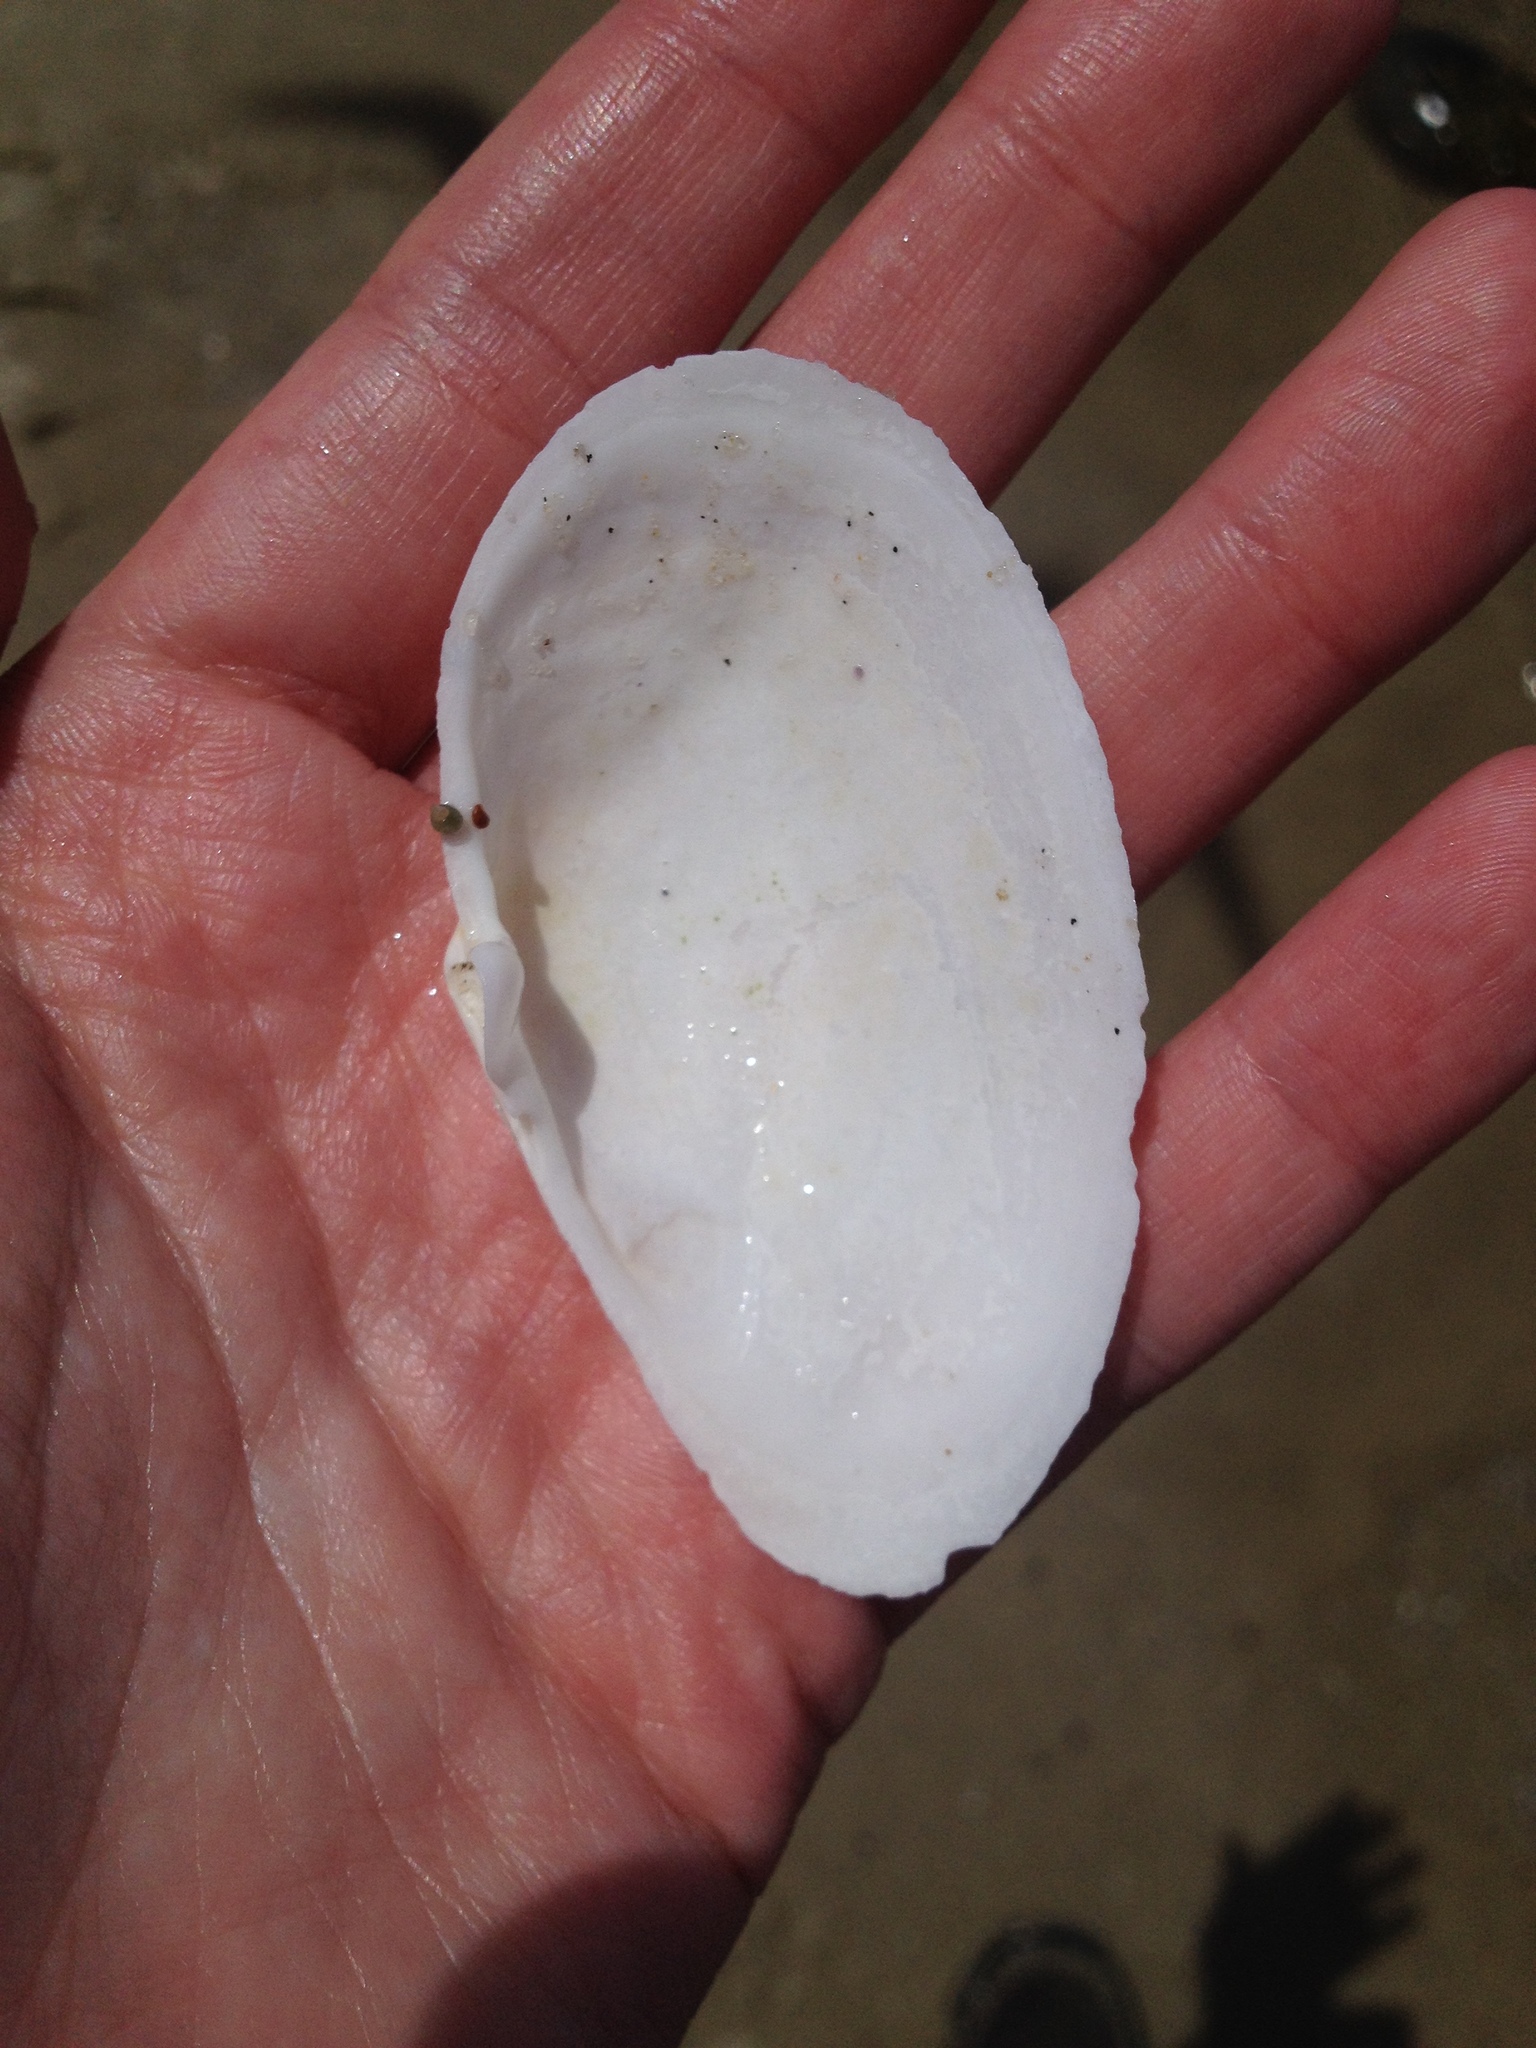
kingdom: Animalia
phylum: Mollusca
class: Bivalvia
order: Myida
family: Myidae
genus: Mya
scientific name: Mya arenaria
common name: Soft-shelled clam
